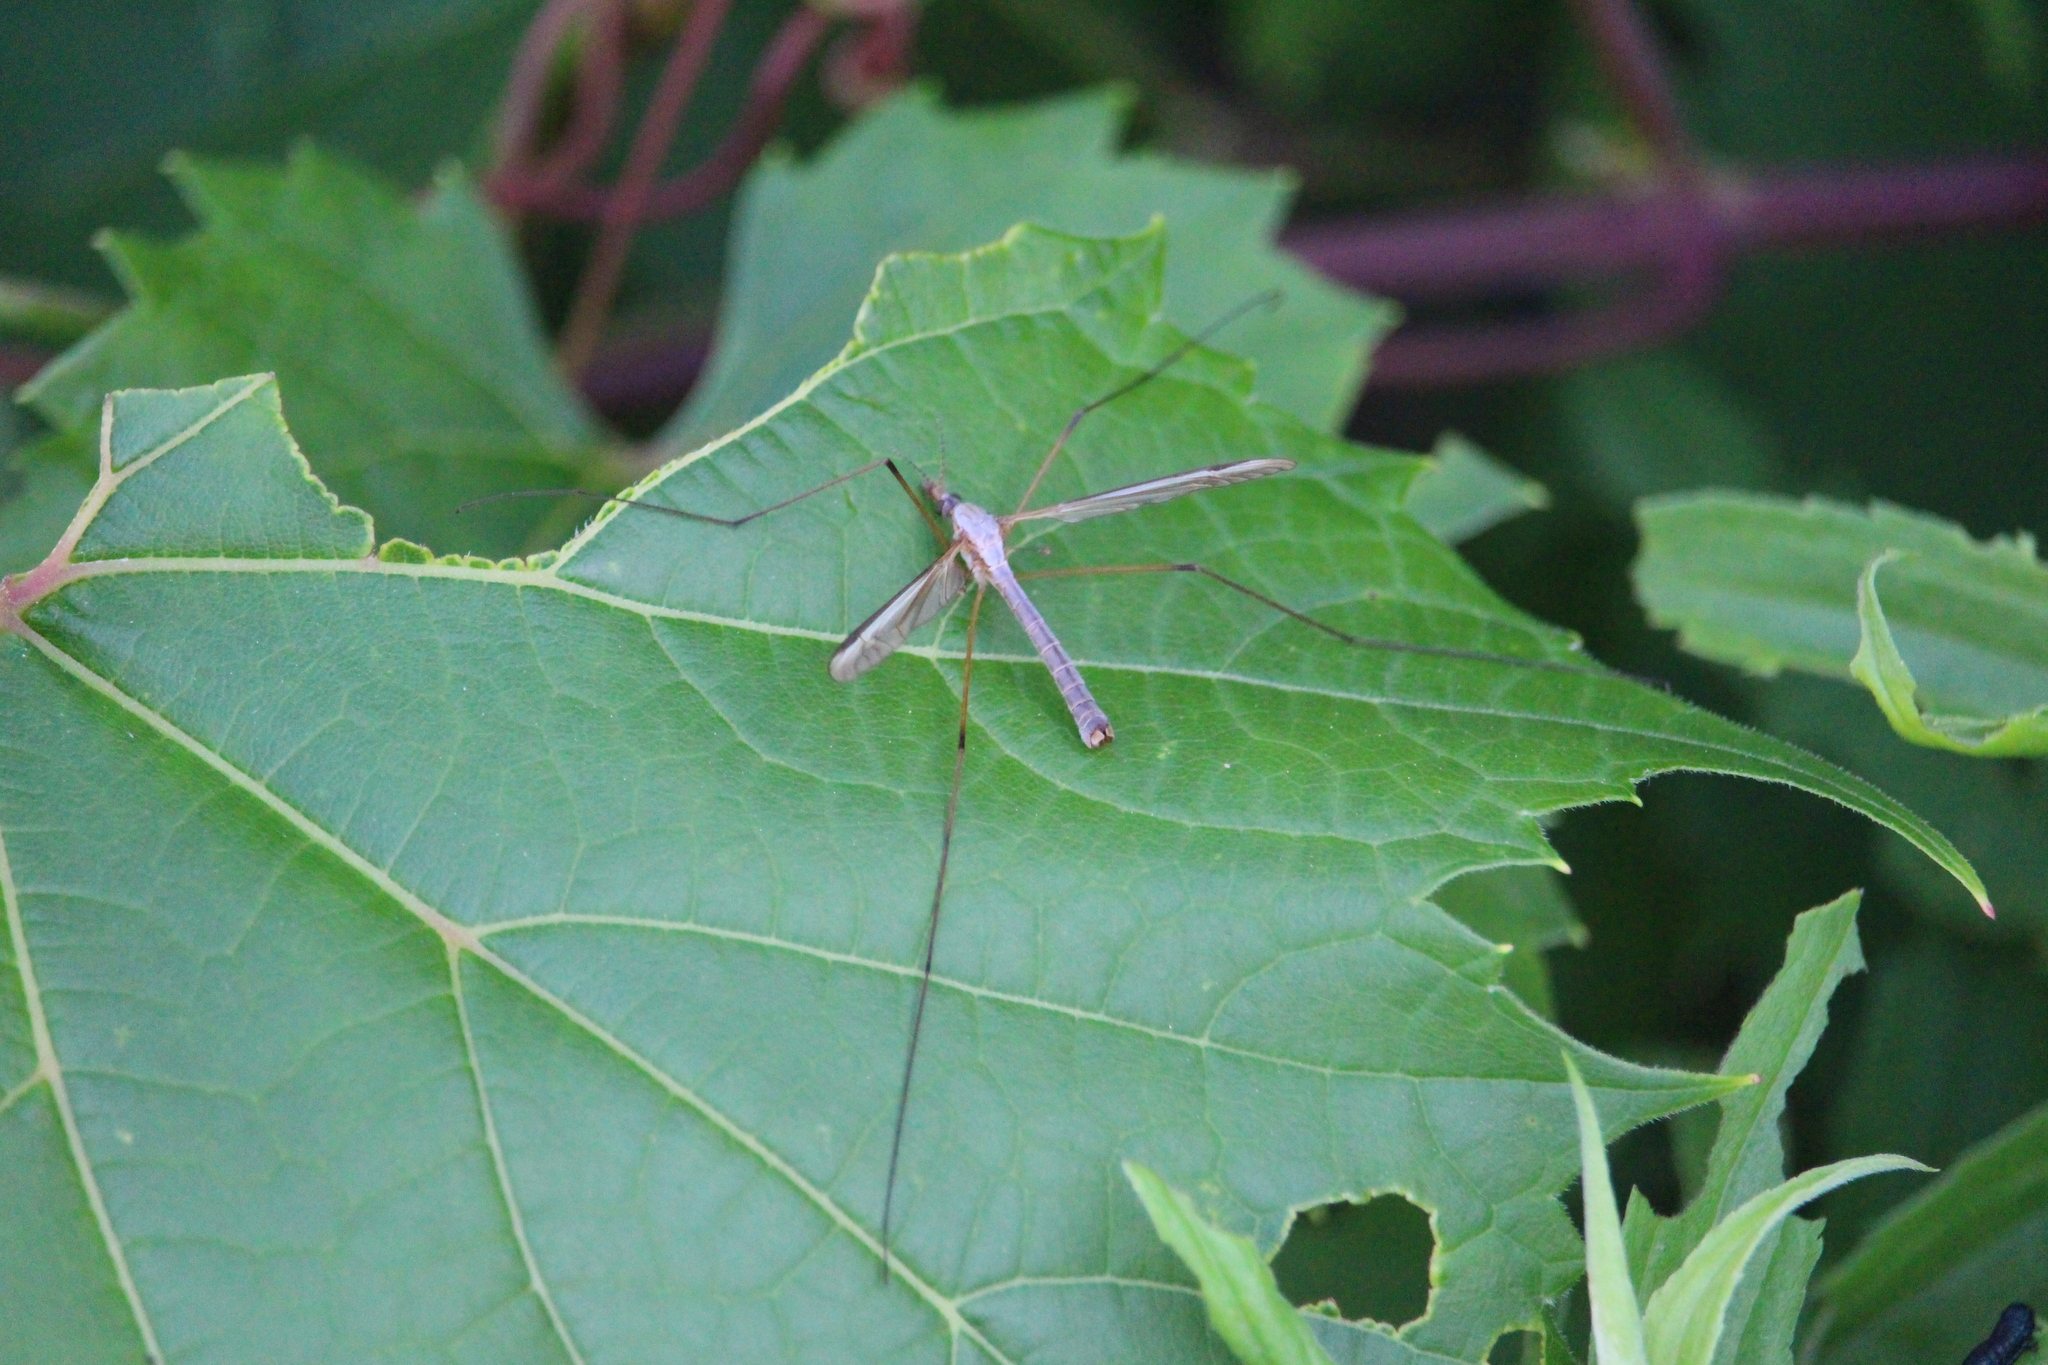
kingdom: Animalia
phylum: Arthropoda
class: Insecta
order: Diptera
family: Tipulidae
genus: Tipula
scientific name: Tipula oleracea
